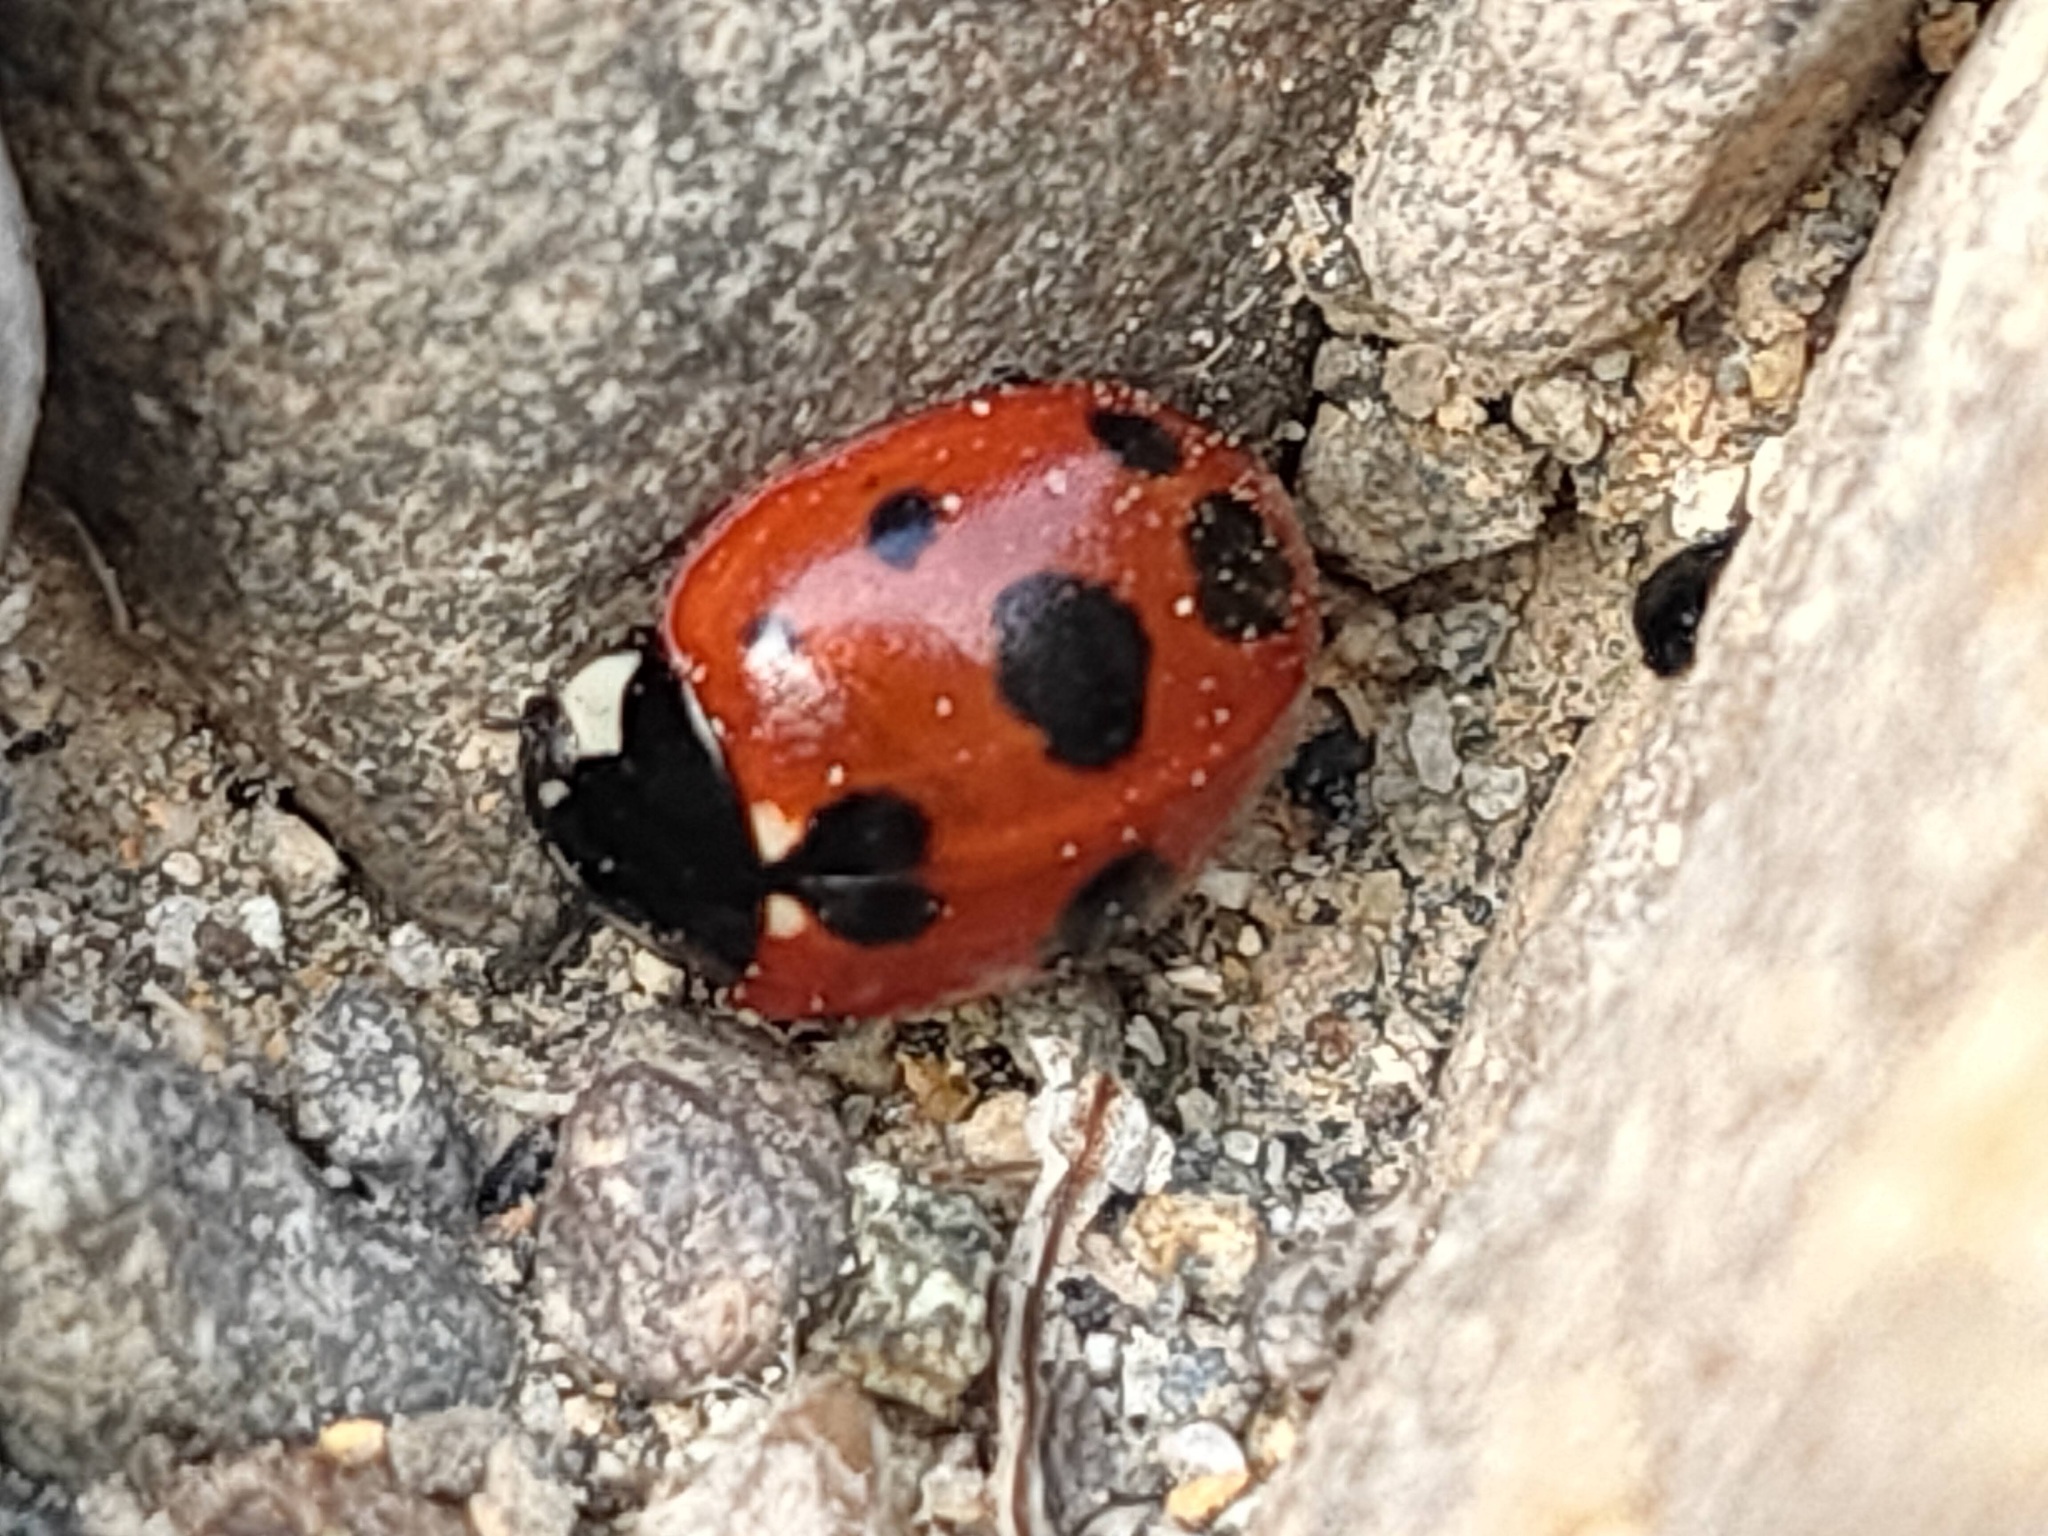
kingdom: Animalia
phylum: Arthropoda
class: Insecta
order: Coleoptera
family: Coccinellidae
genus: Coccinella
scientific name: Coccinella ainu
